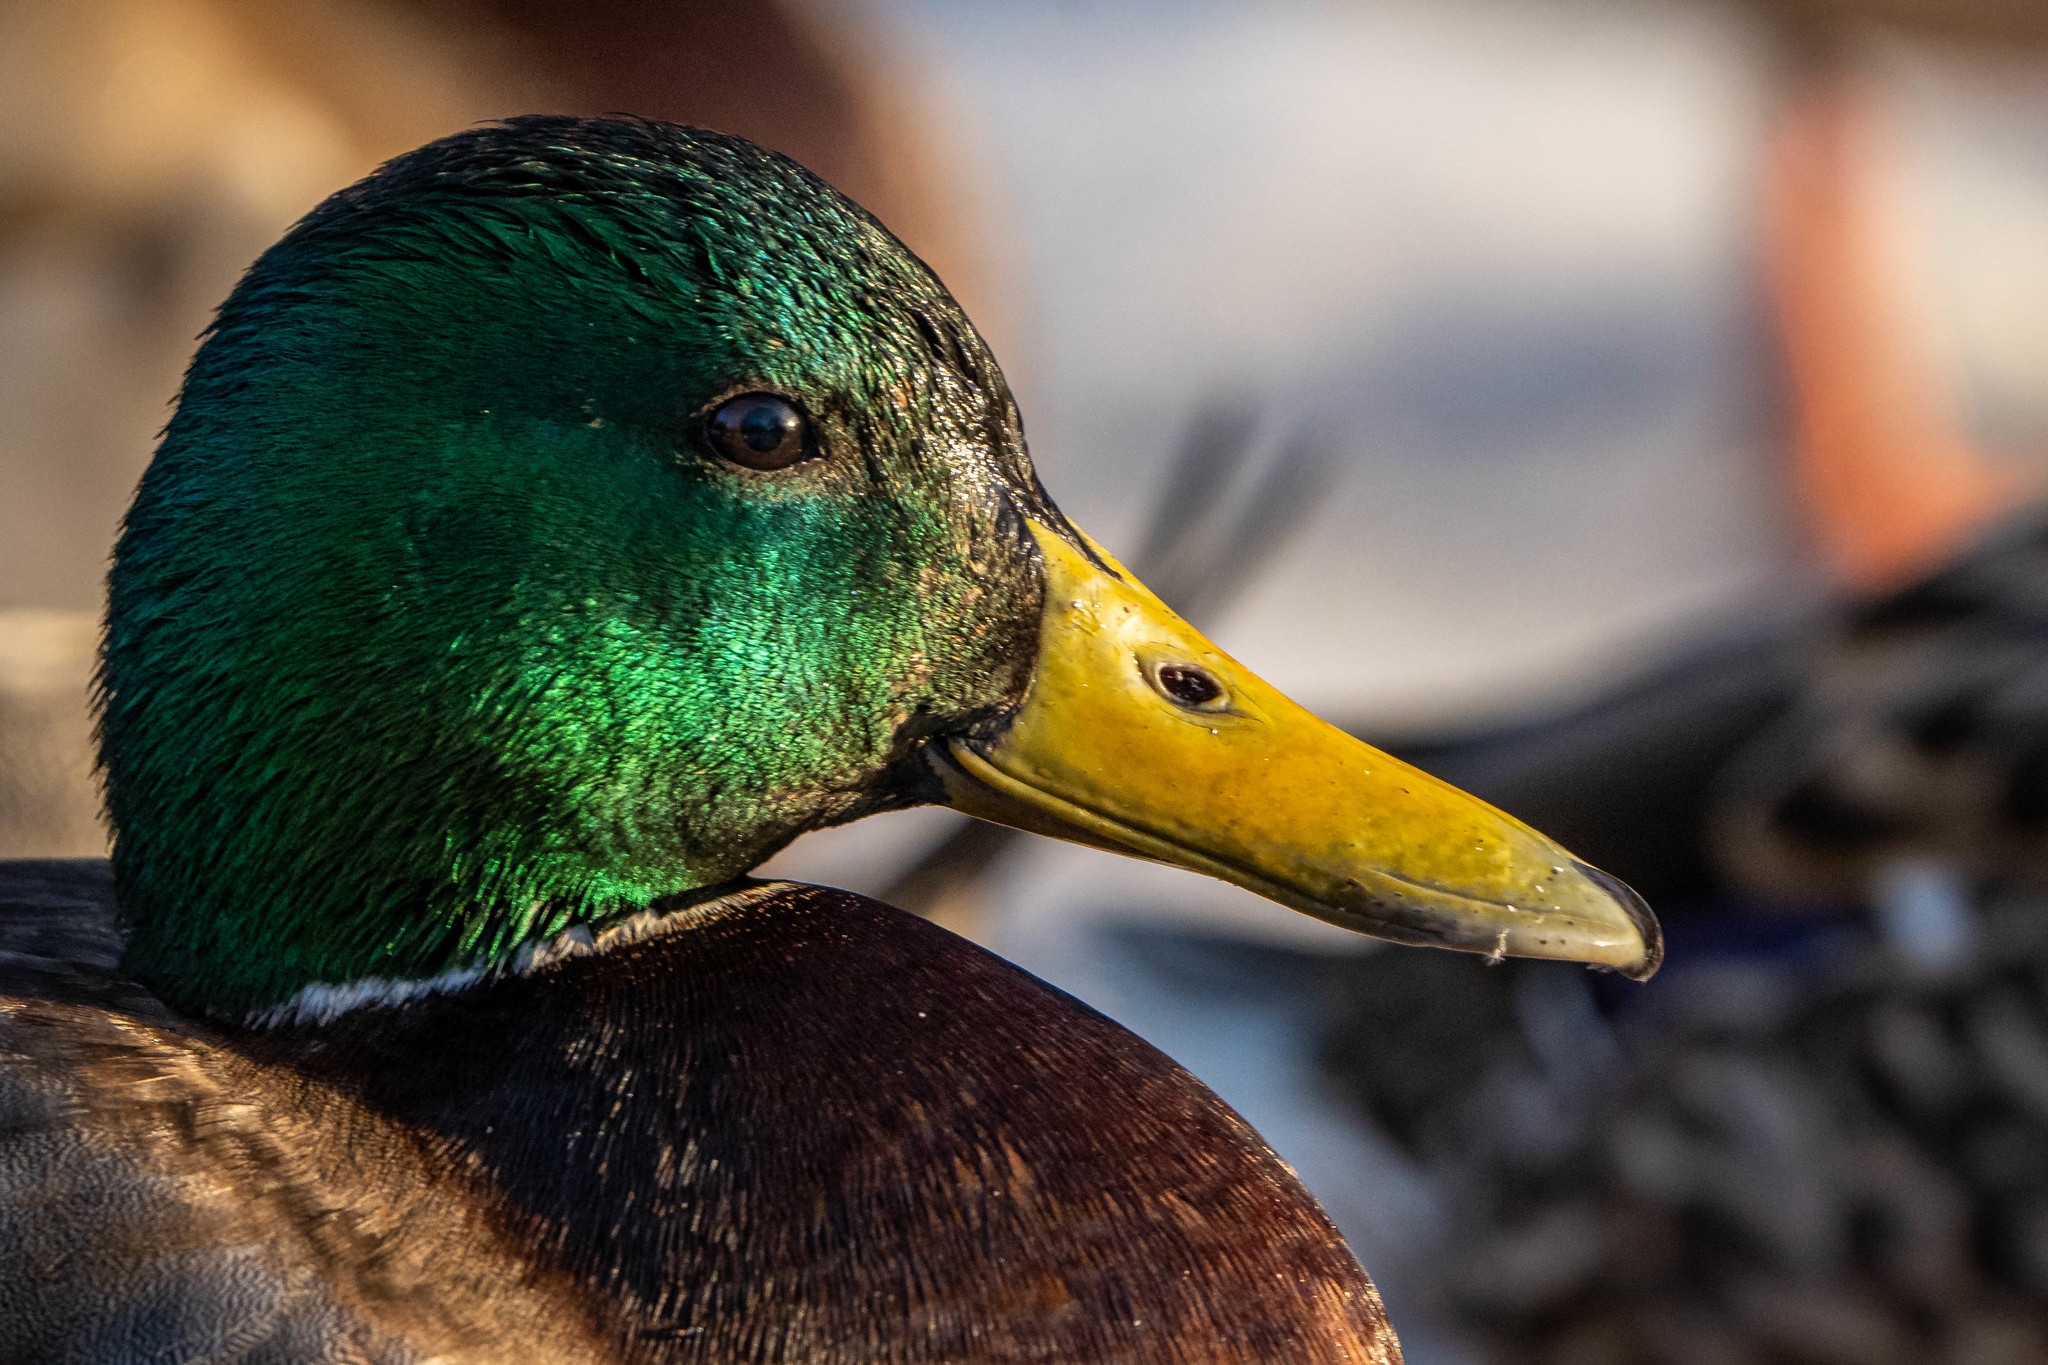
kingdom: Animalia
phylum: Chordata
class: Aves
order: Anseriformes
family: Anatidae
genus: Anas
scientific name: Anas platyrhynchos
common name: Mallard
